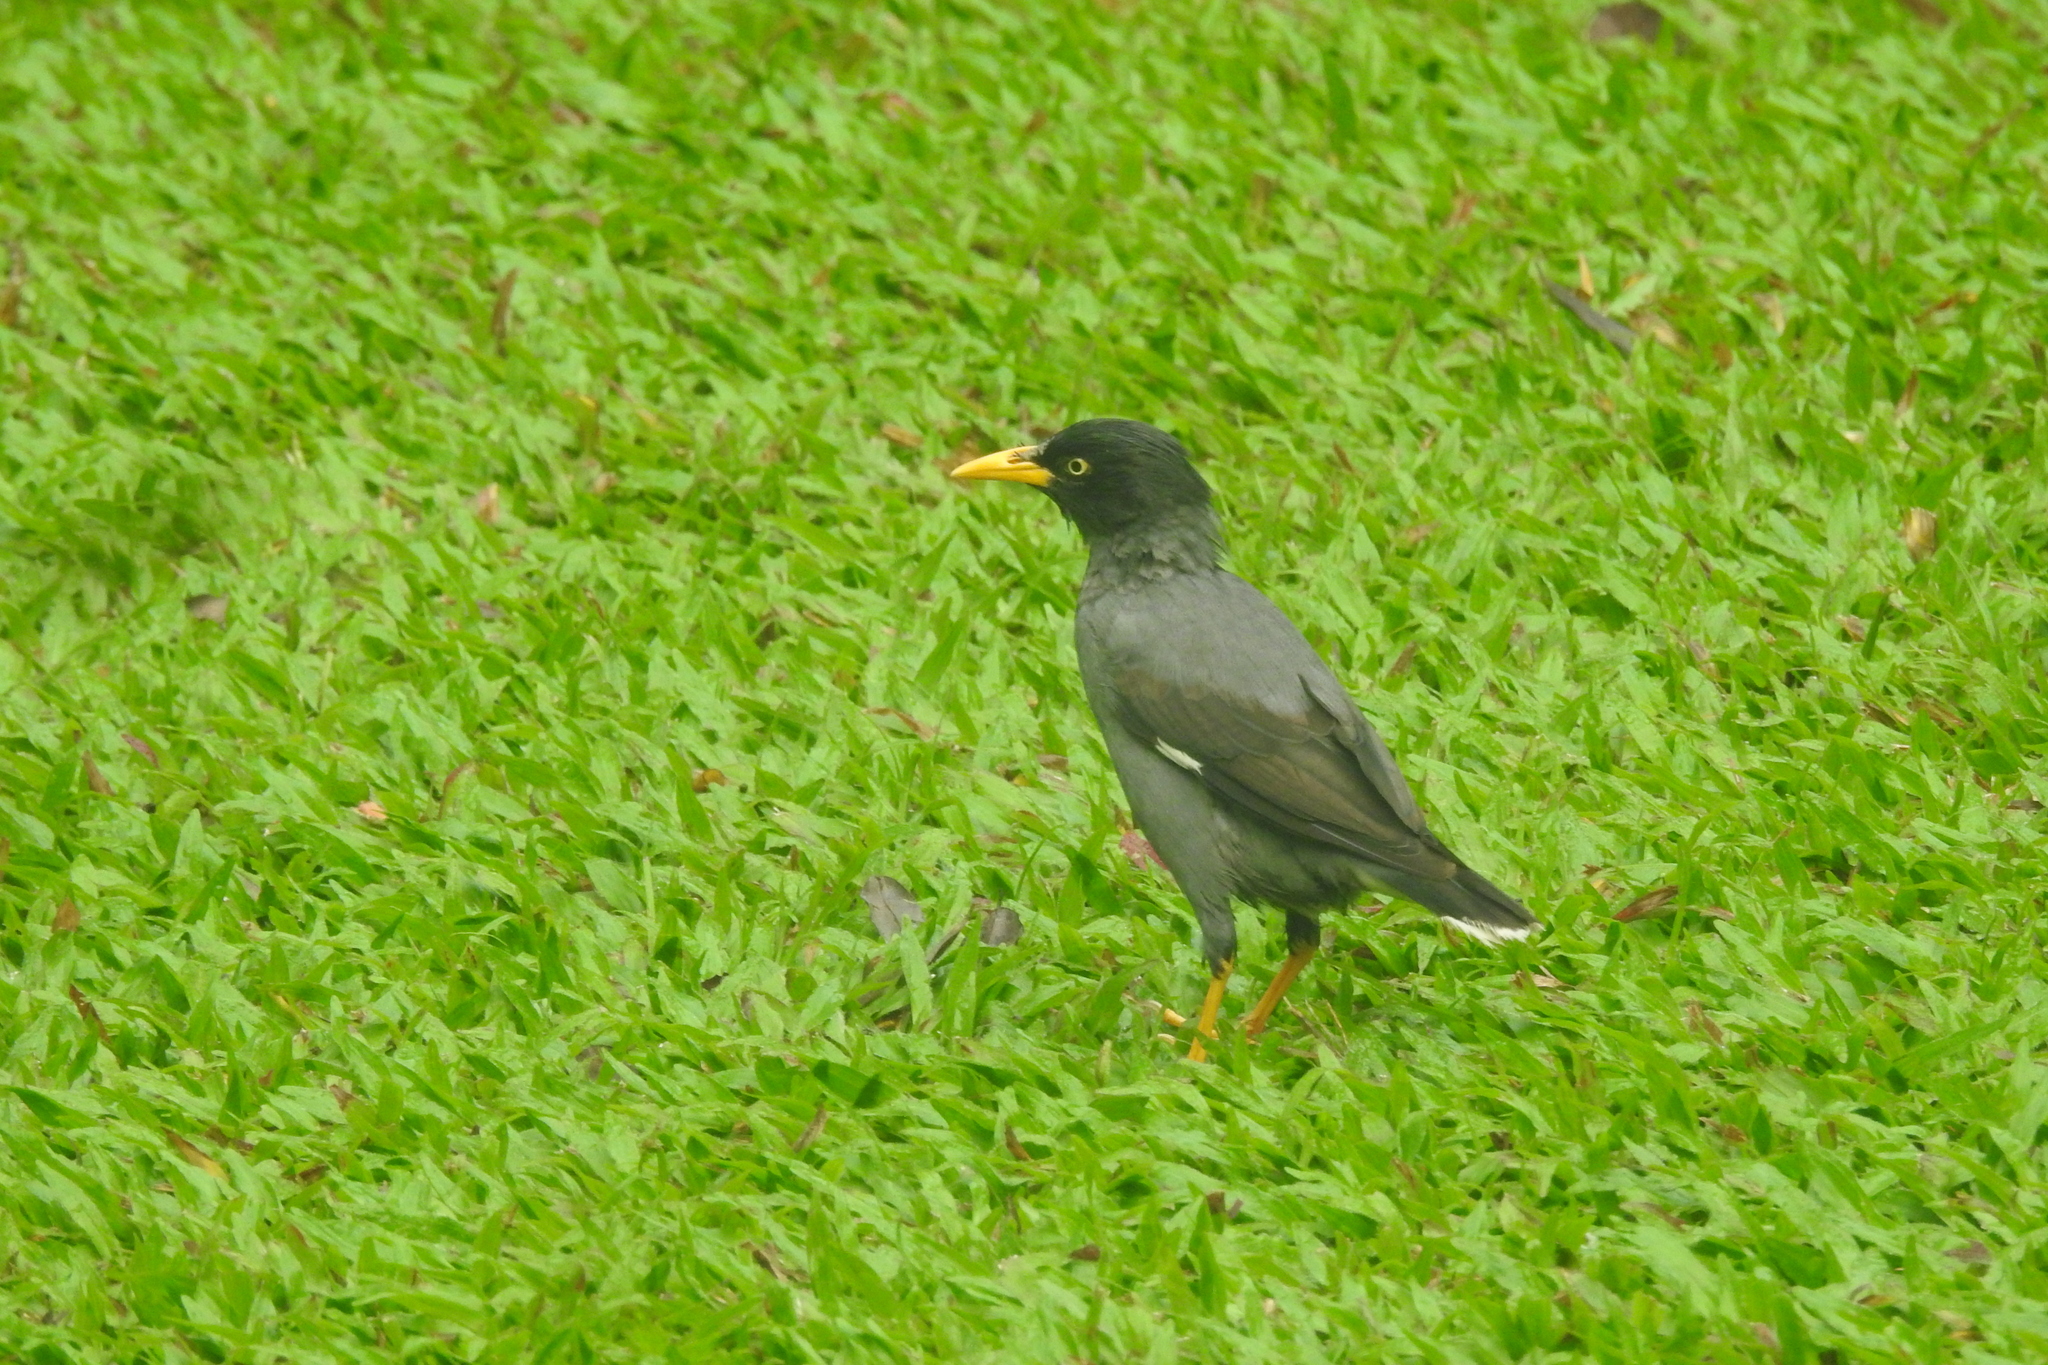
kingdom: Animalia
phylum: Chordata
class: Aves
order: Passeriformes
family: Sturnidae
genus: Acridotheres
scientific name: Acridotheres javanicus
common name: Javan myna
